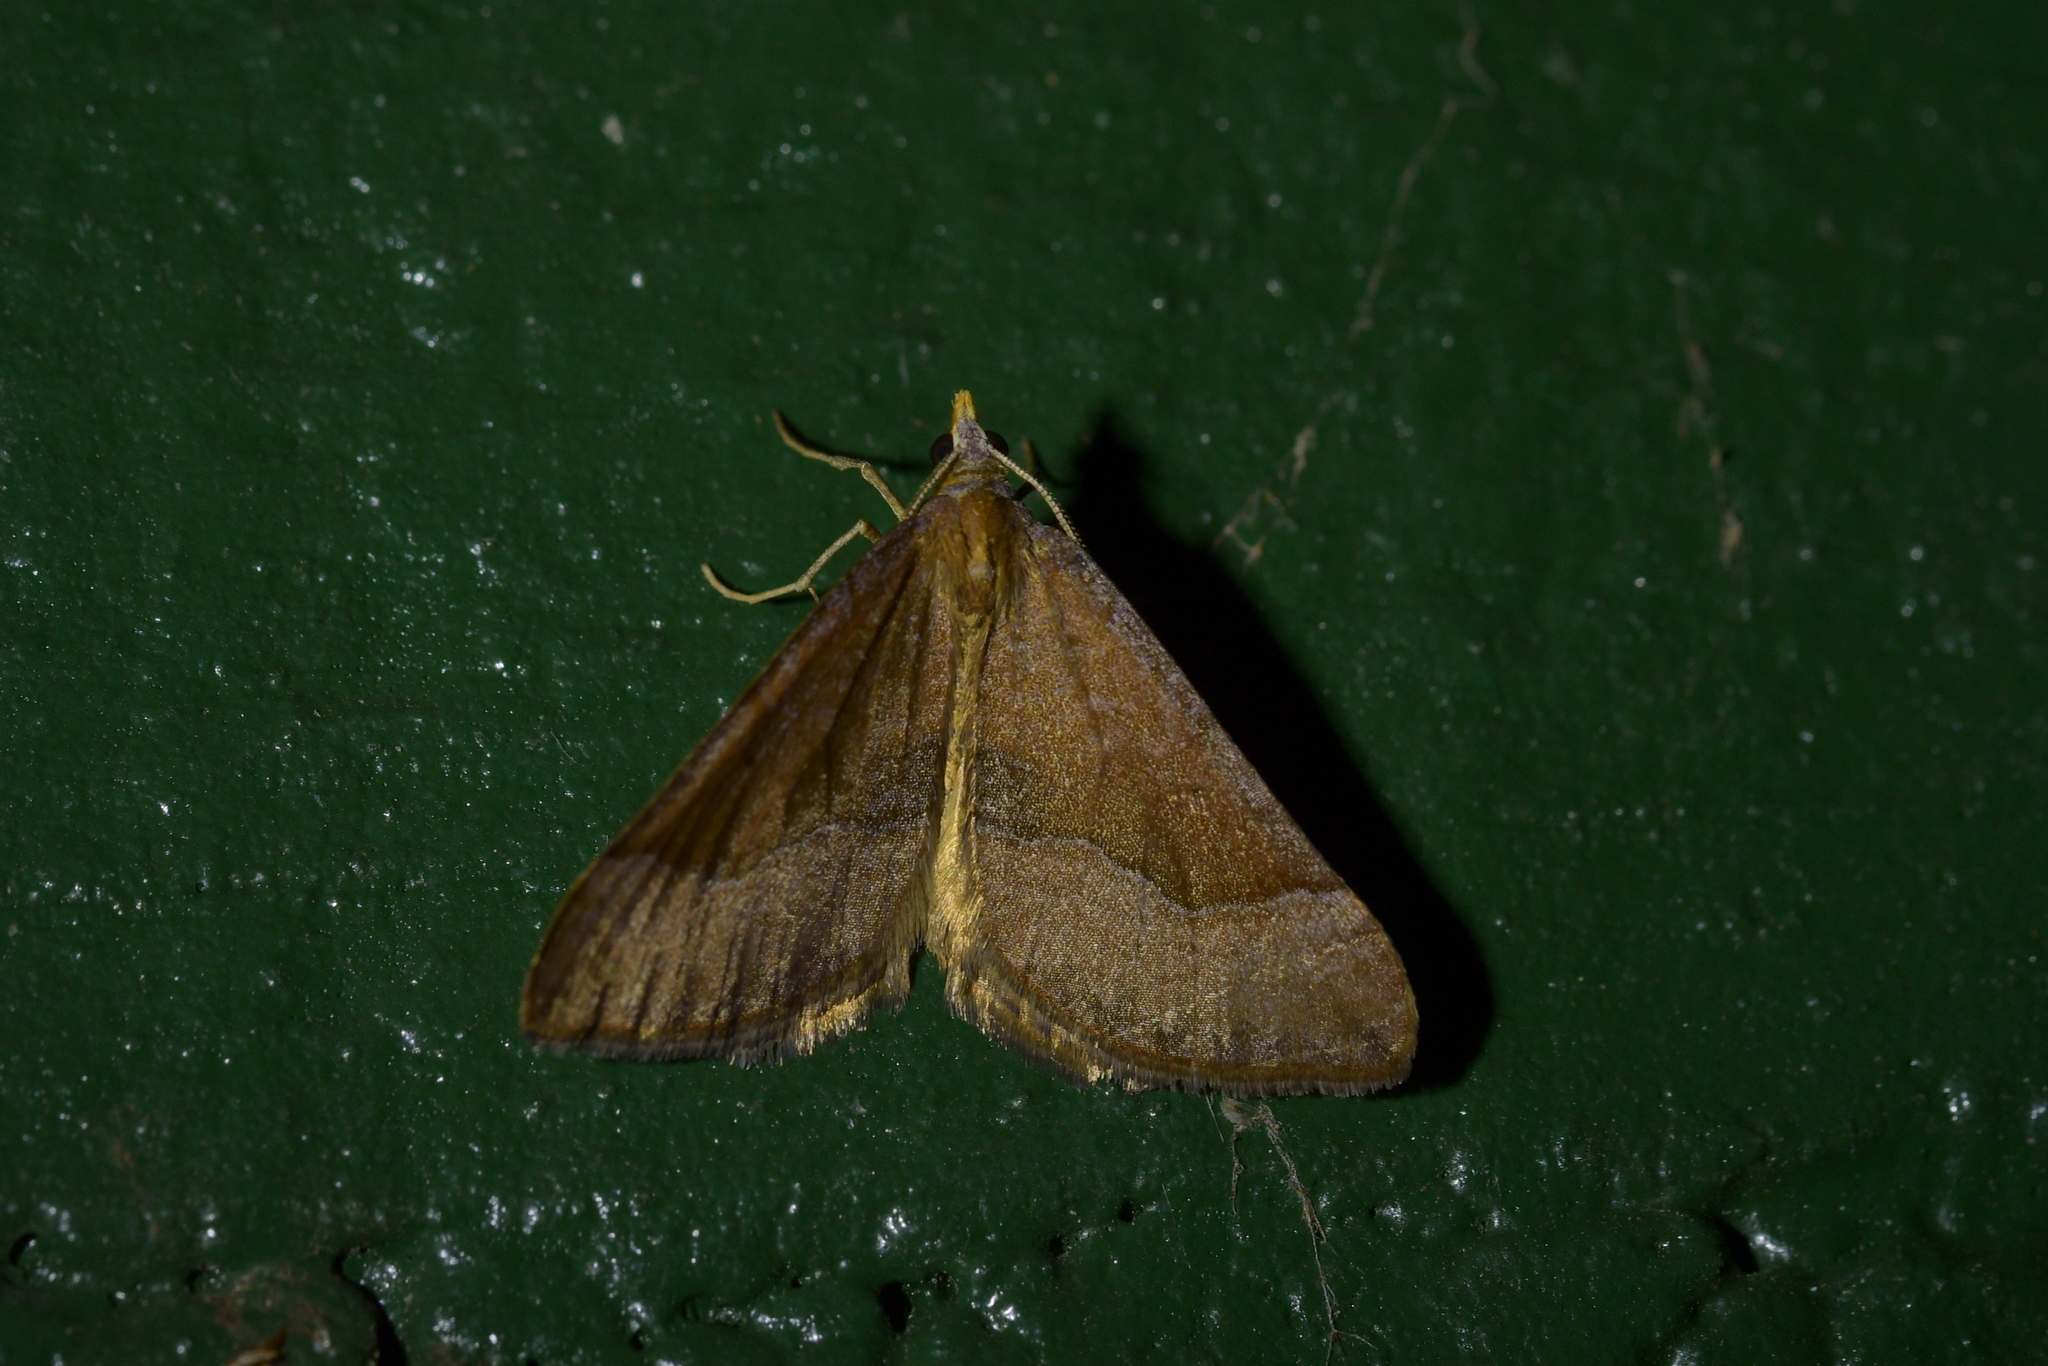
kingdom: Animalia
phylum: Arthropoda
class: Insecta
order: Lepidoptera
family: Geometridae
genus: Anachloris
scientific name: Anachloris subochraria
